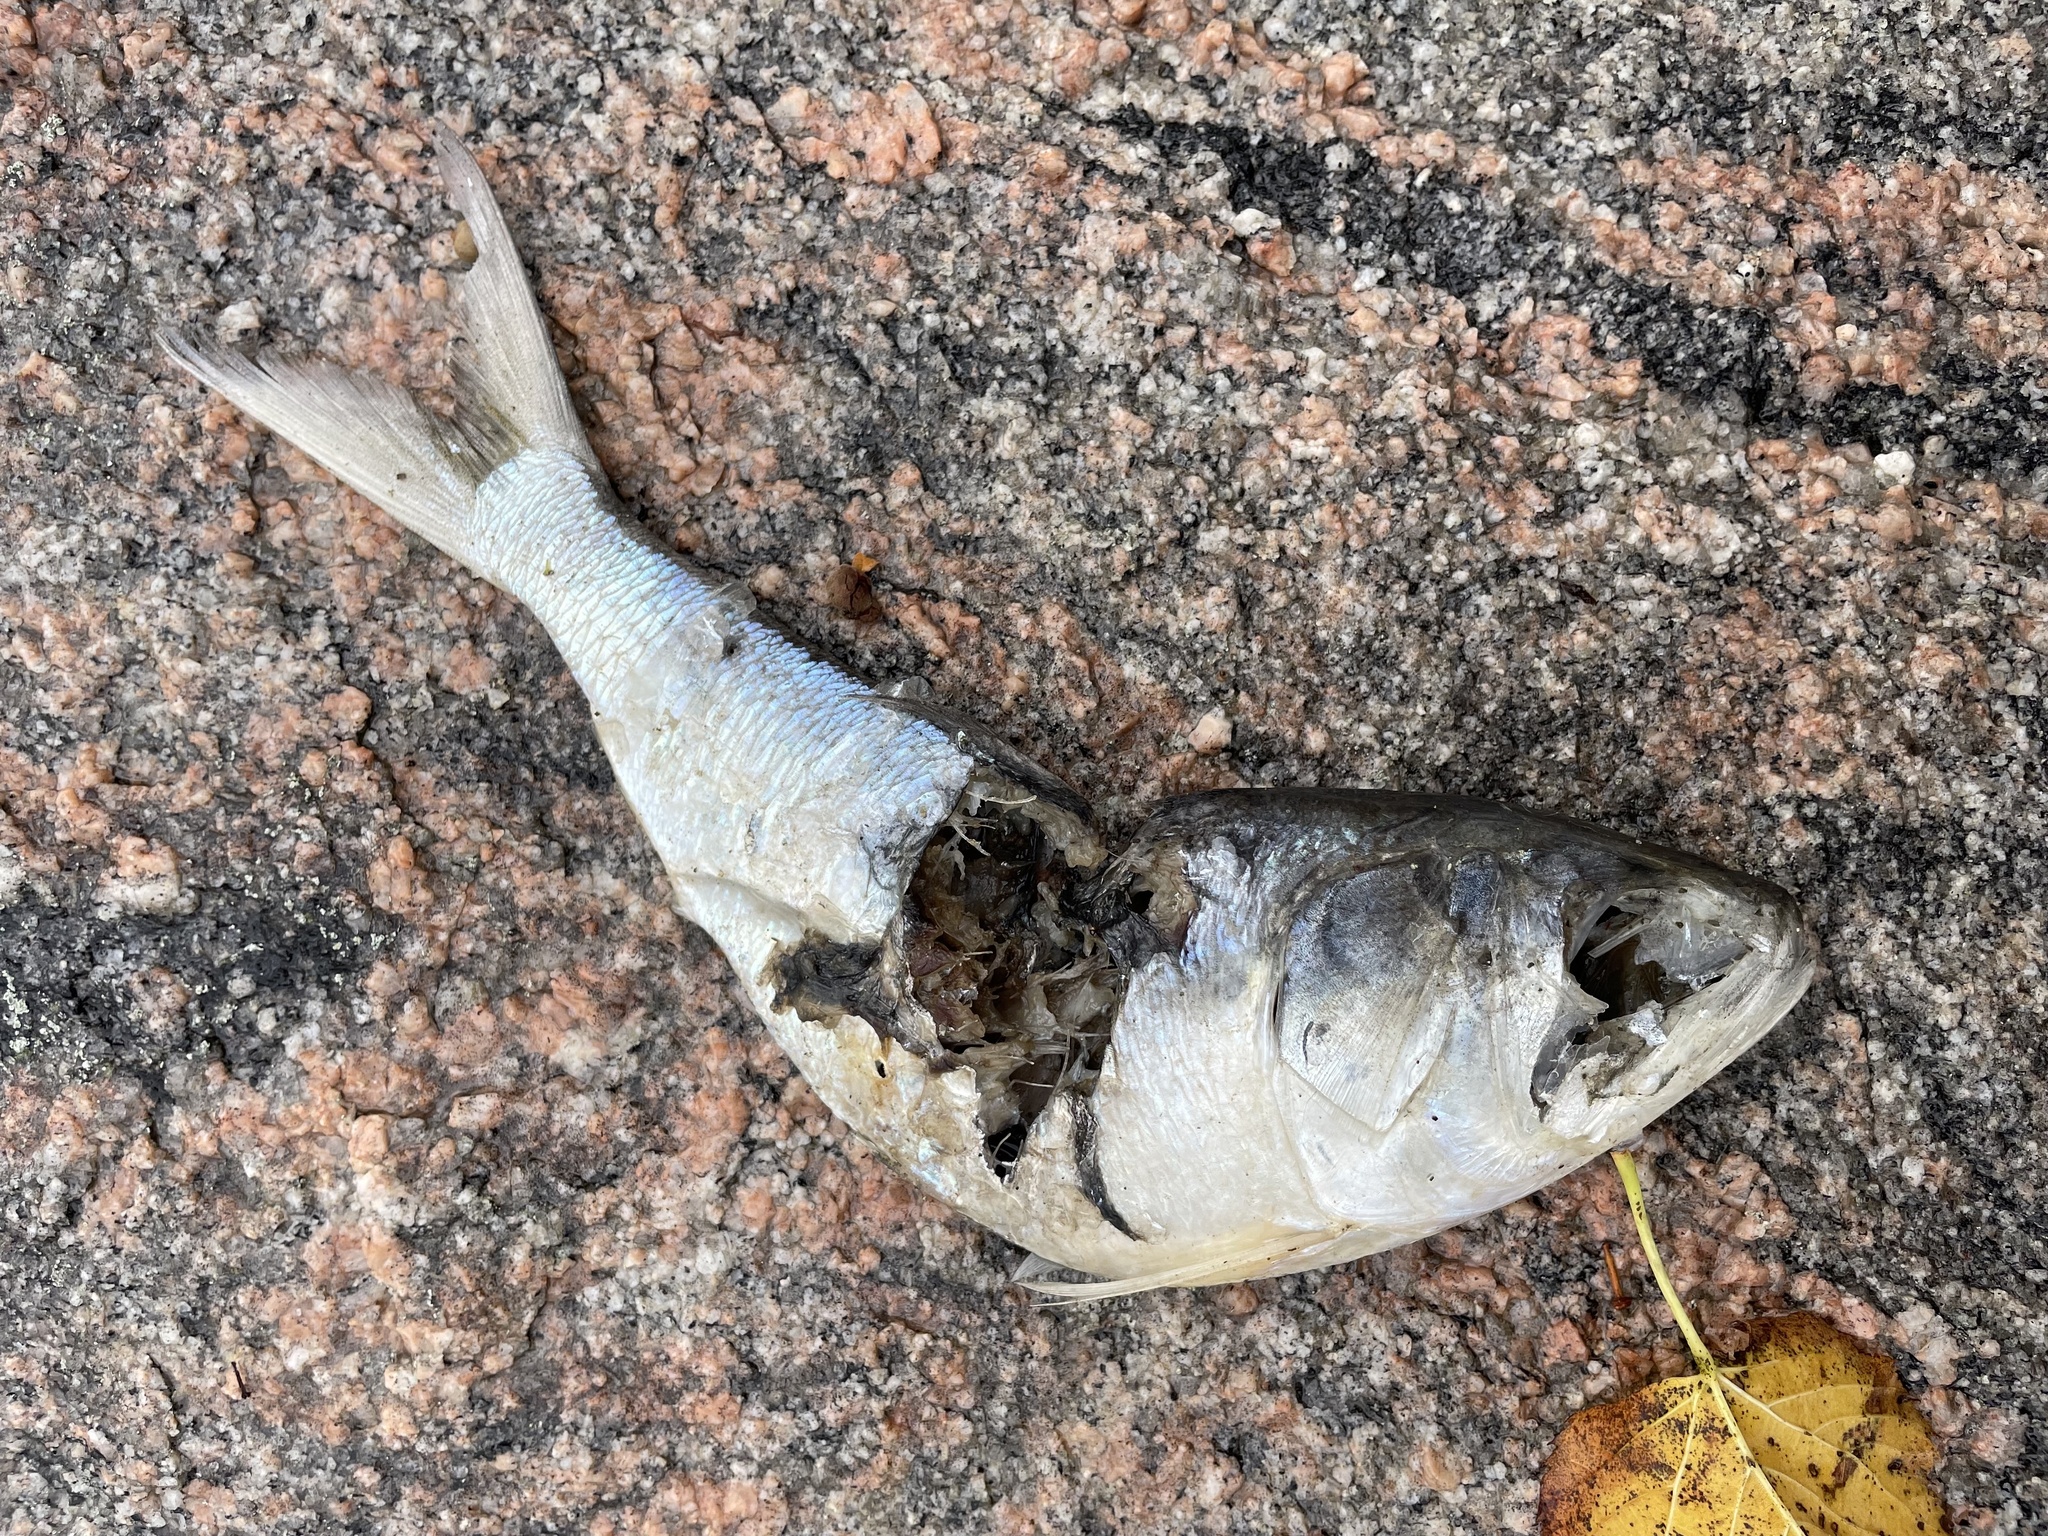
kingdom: Animalia
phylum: Chordata
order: Clupeiformes
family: Clupeidae
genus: Brevoortia
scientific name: Brevoortia tyrannus
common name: Atlantic menhaden
